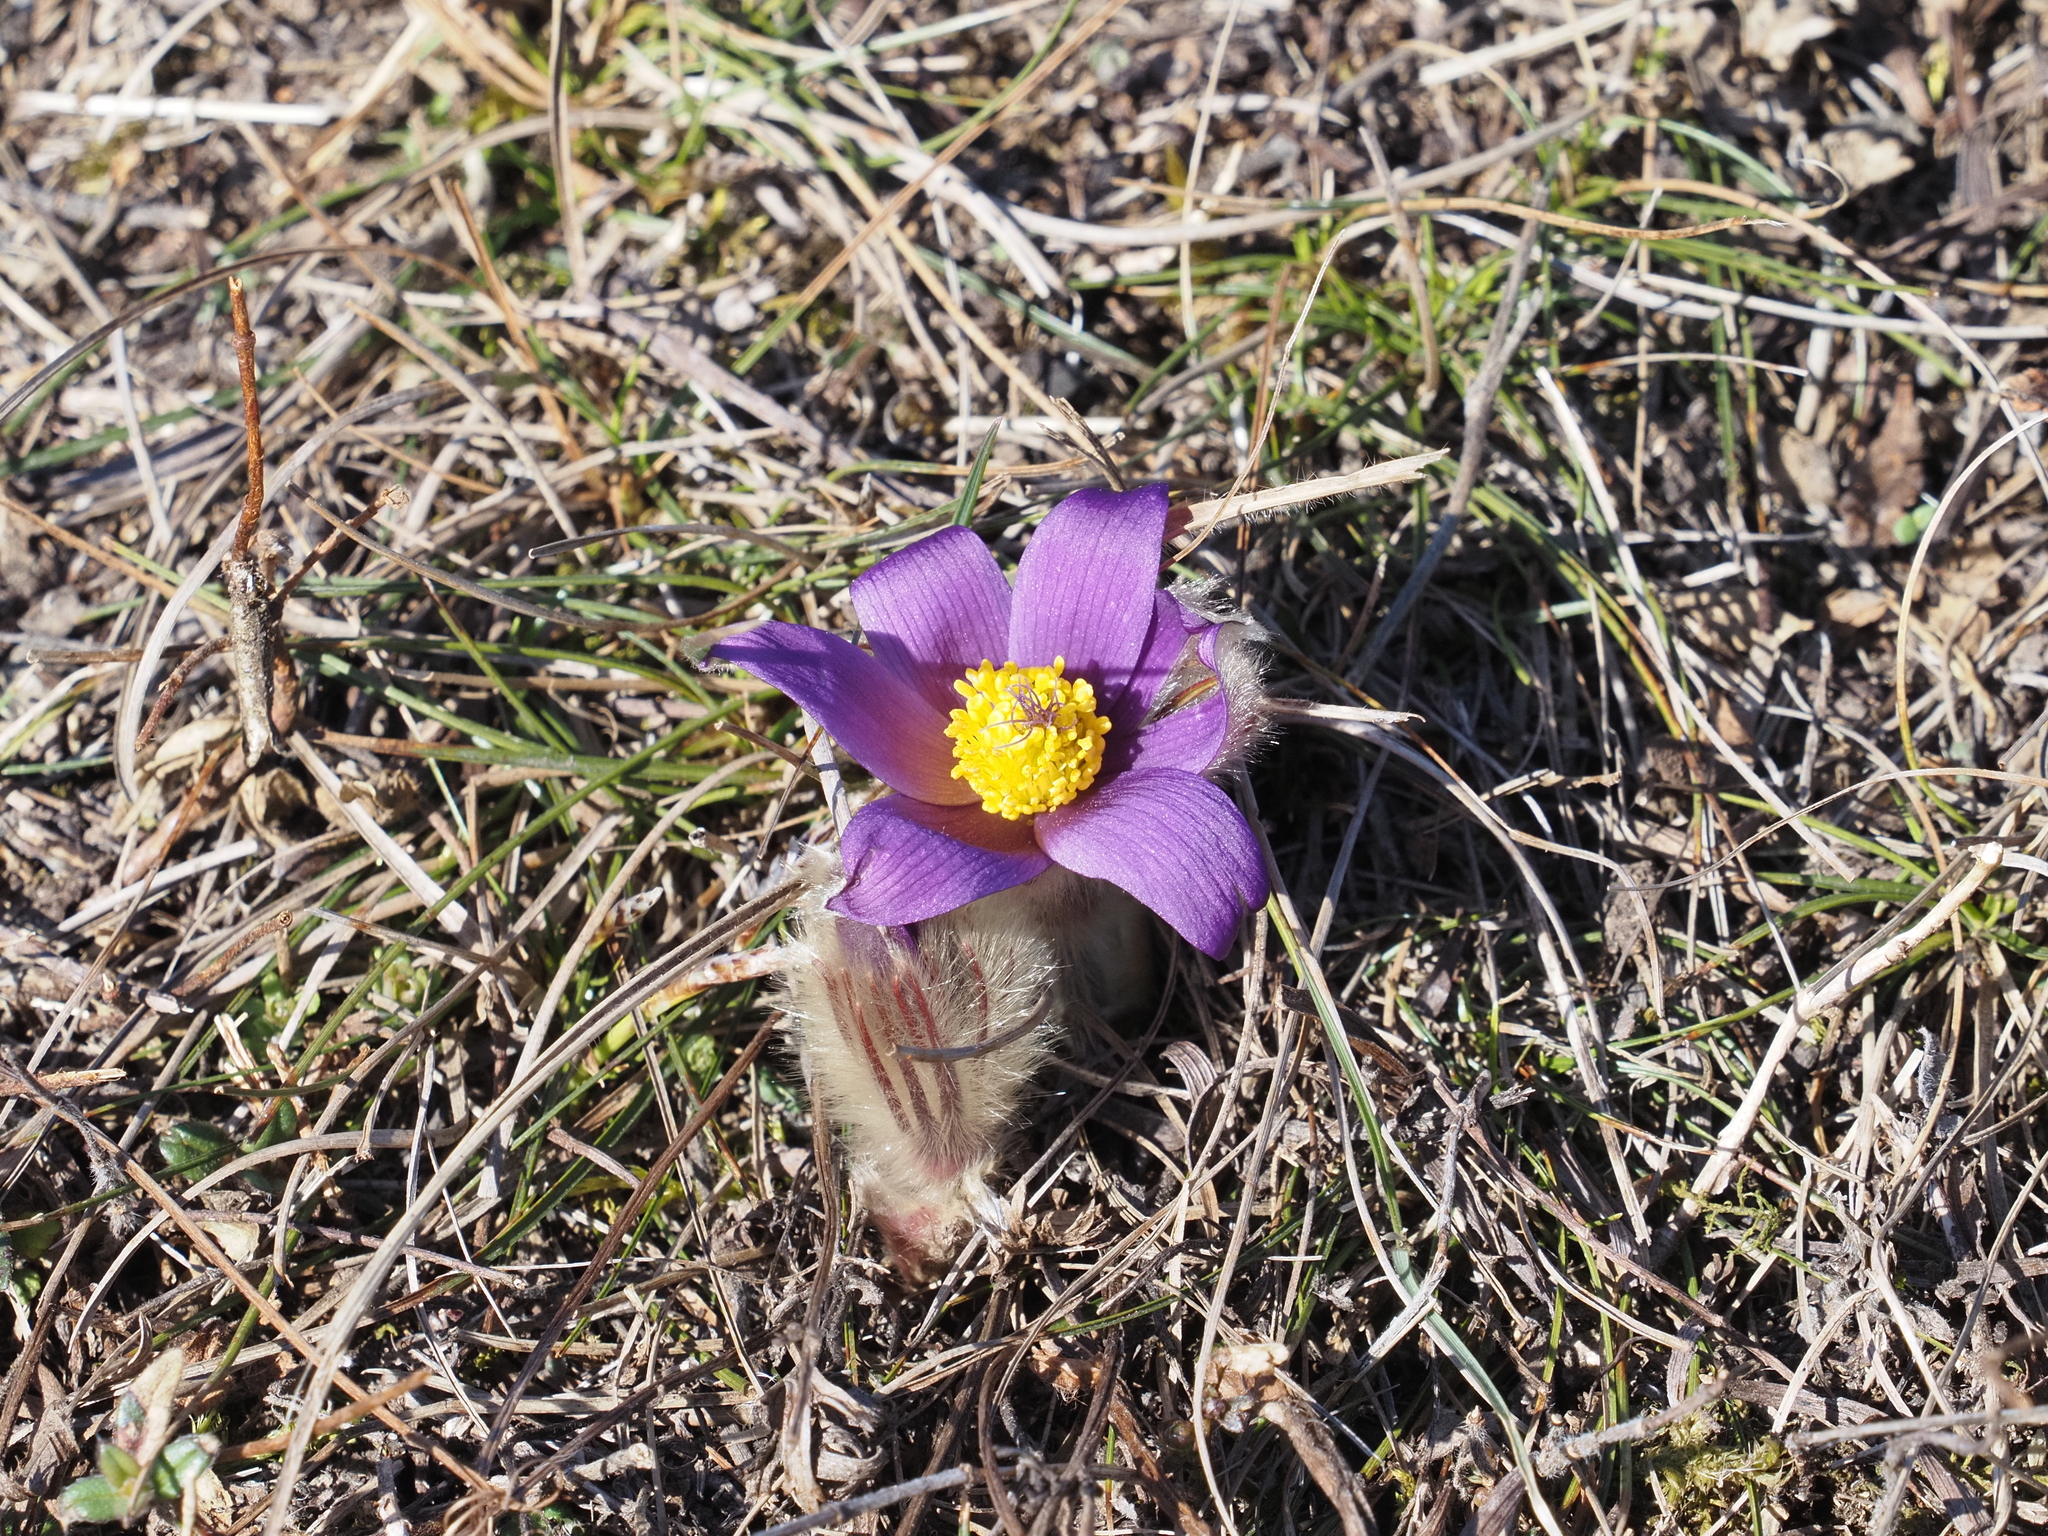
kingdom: Plantae
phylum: Tracheophyta
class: Magnoliopsida
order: Ranunculales
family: Ranunculaceae
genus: Pulsatilla
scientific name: Pulsatilla grandis
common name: Greater pasque flower
